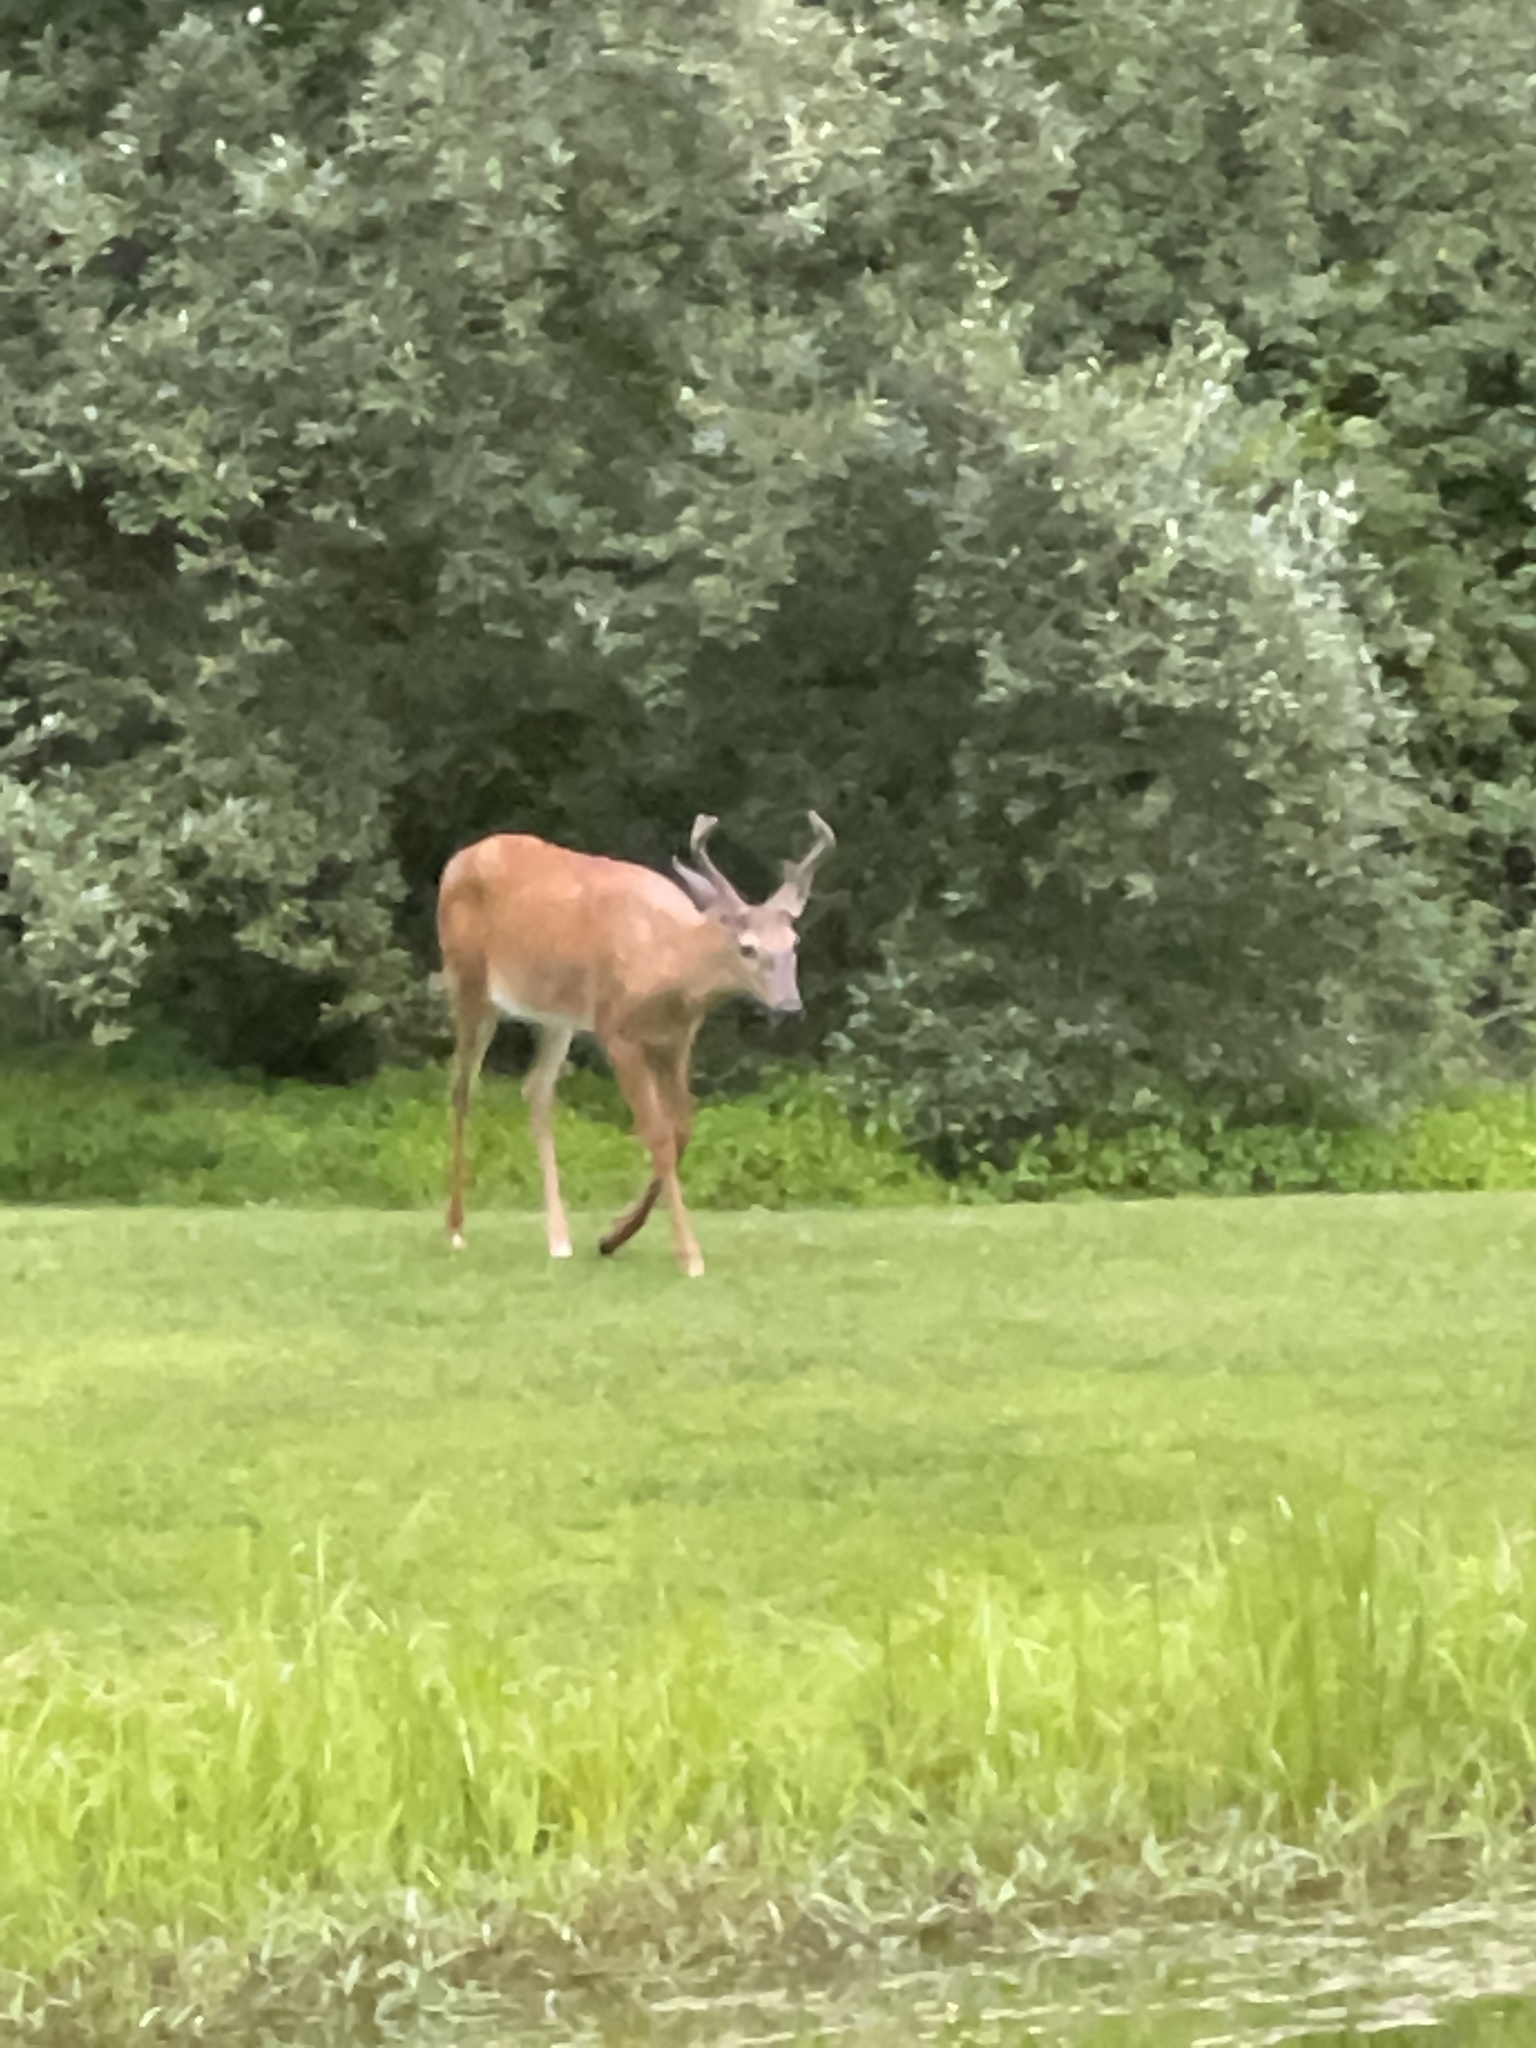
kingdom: Animalia
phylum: Chordata
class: Mammalia
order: Artiodactyla
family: Cervidae
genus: Odocoileus
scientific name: Odocoileus virginianus
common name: White-tailed deer
